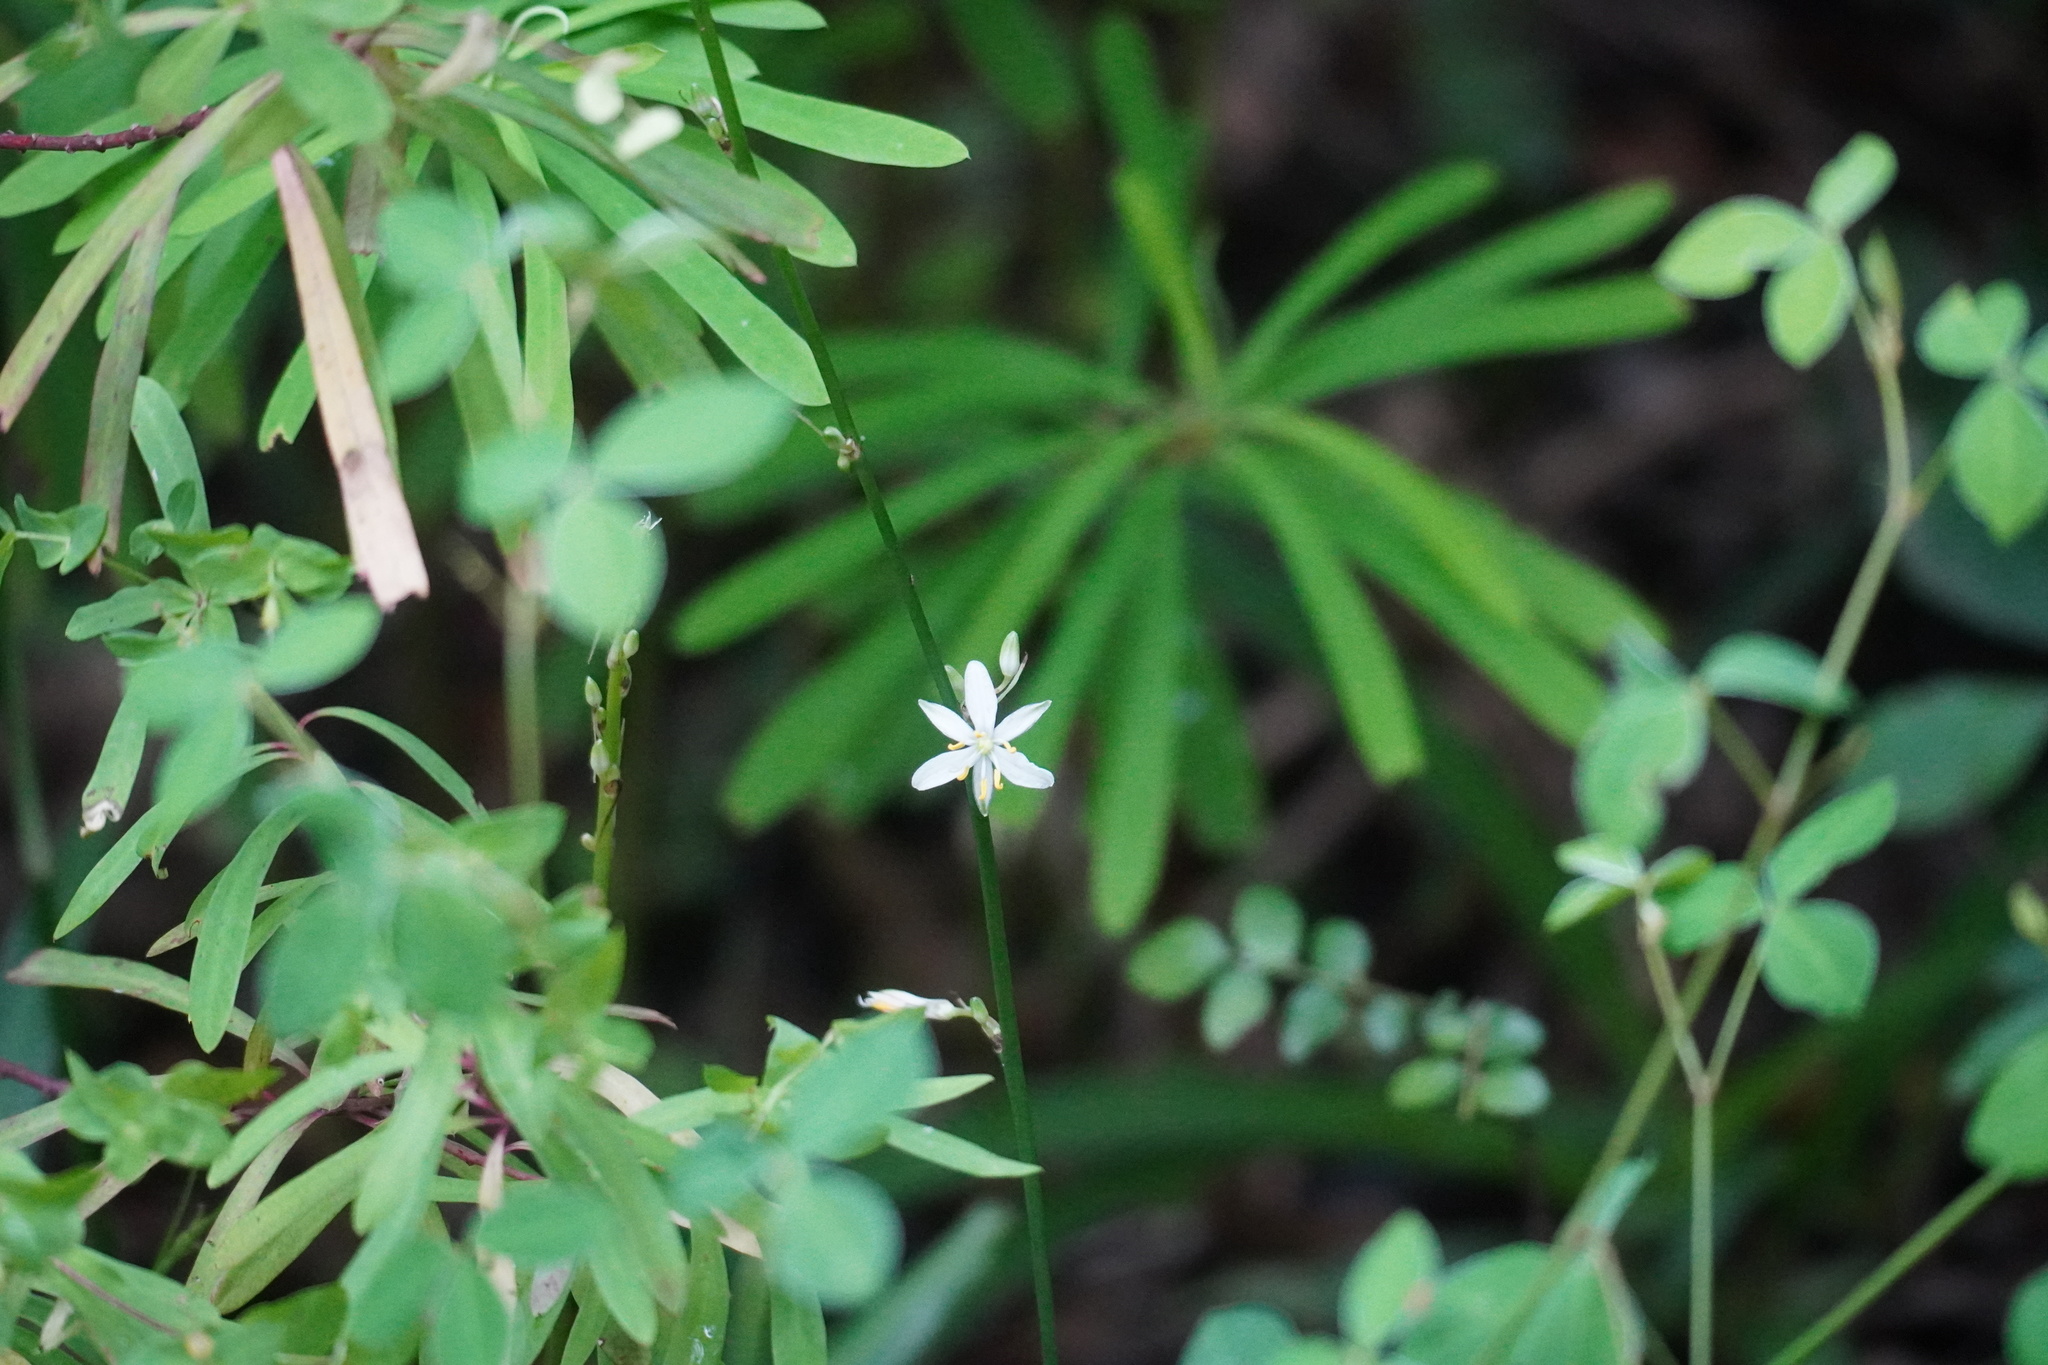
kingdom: Plantae
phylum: Tracheophyta
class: Liliopsida
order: Asparagales
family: Asparagaceae
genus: Chlorophytum
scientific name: Chlorophytum comosum
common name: Spider plant
